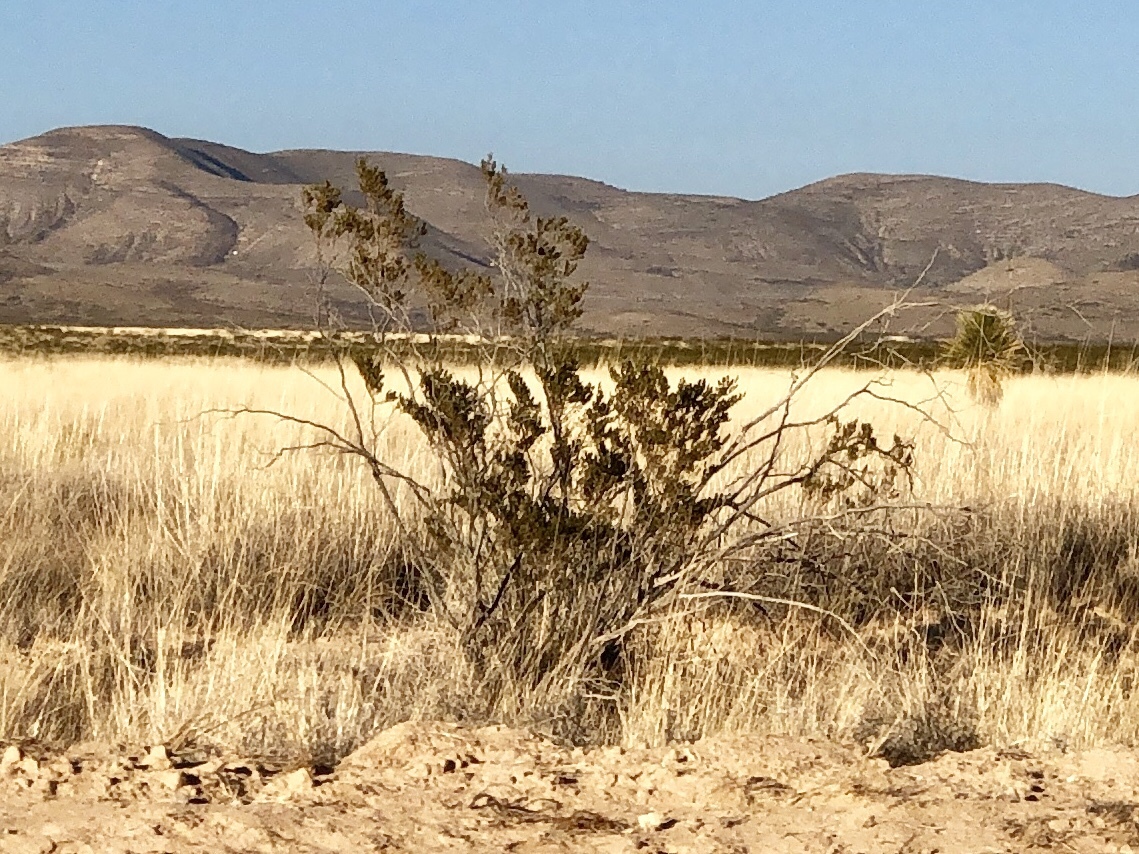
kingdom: Plantae
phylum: Tracheophyta
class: Magnoliopsida
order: Zygophyllales
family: Zygophyllaceae
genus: Larrea
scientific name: Larrea tridentata
